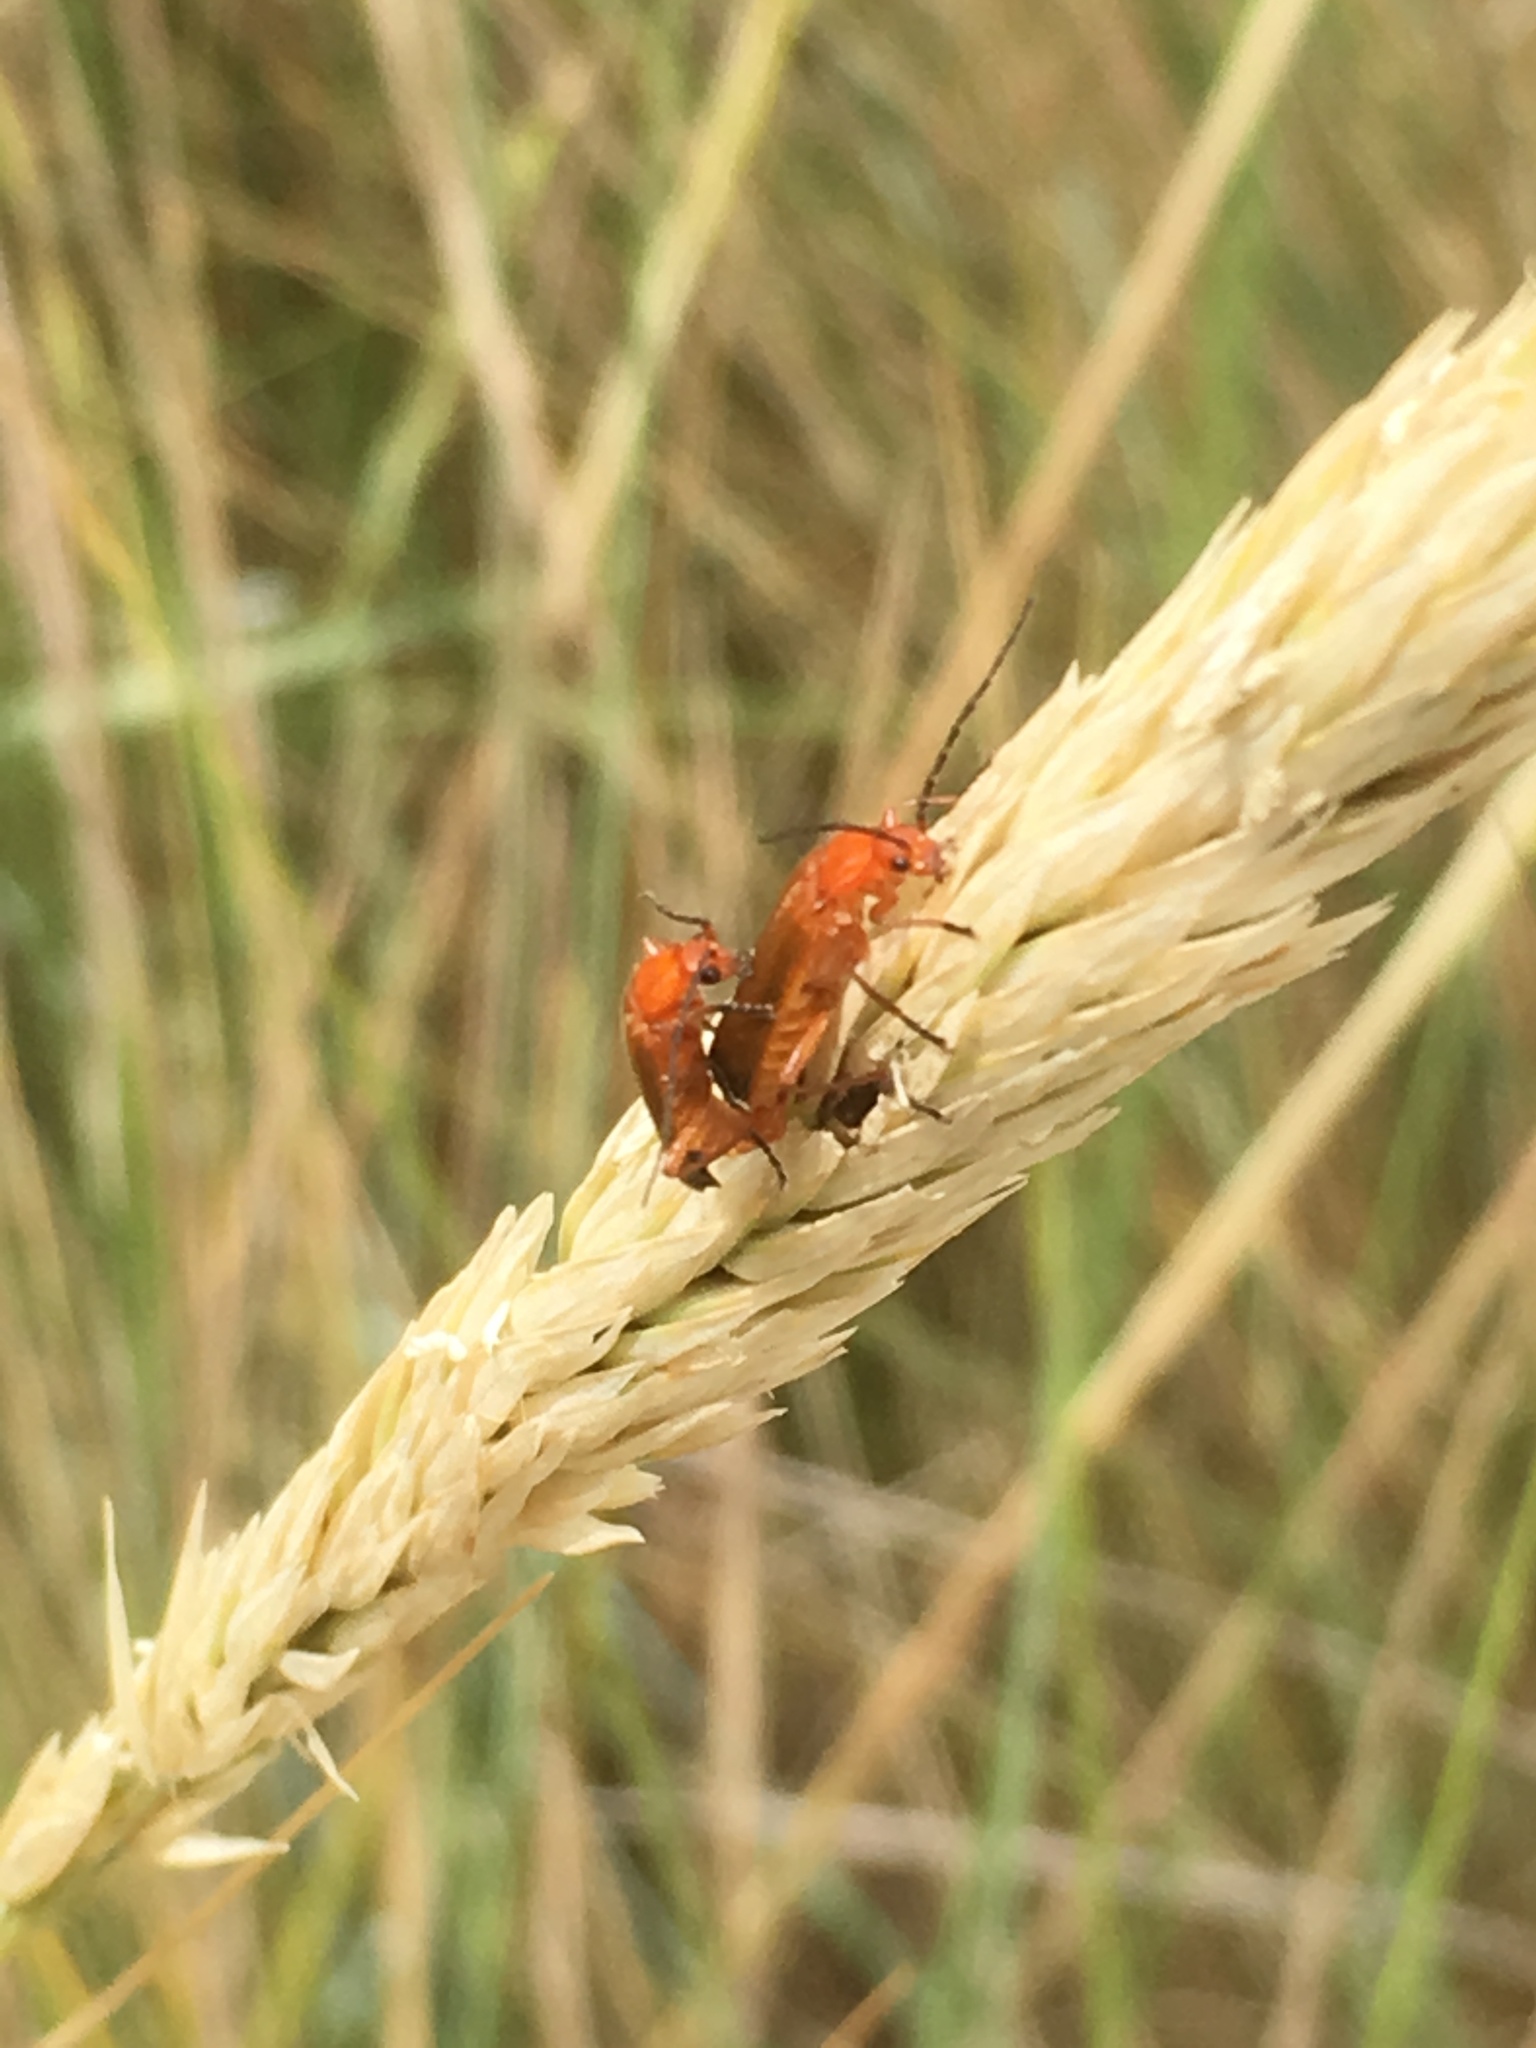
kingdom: Animalia
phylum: Arthropoda
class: Insecta
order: Coleoptera
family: Cantharidae
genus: Rhagonycha
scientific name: Rhagonycha fulva
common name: Common red soldier beetle
